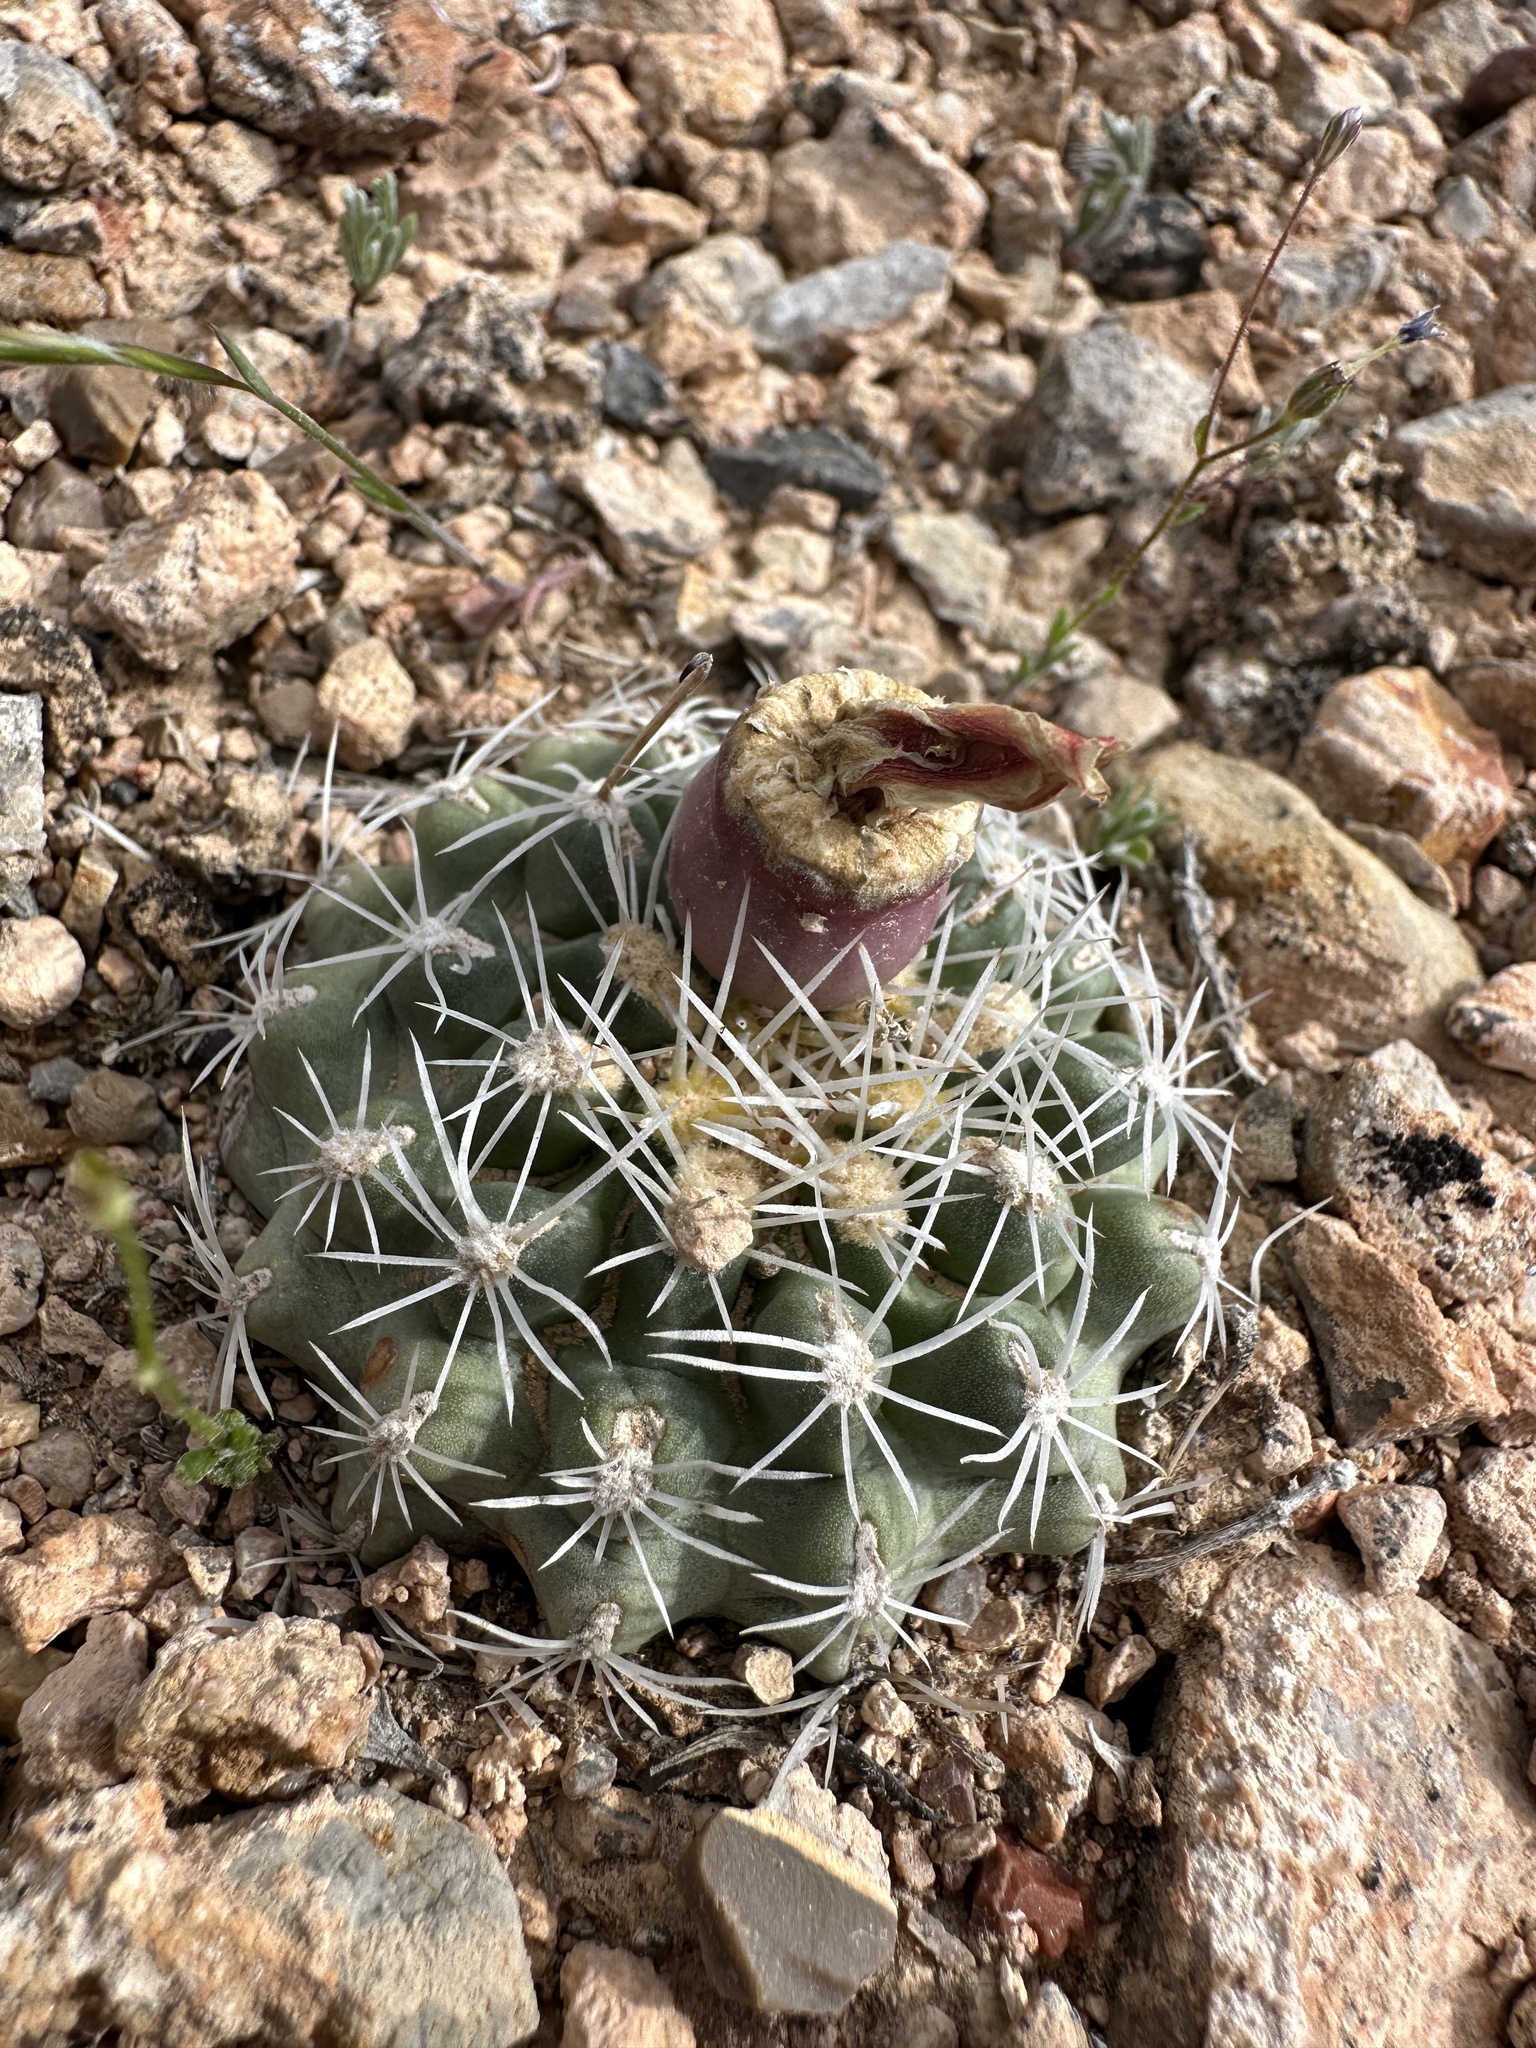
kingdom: Plantae
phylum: Tracheophyta
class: Magnoliopsida
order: Caryophyllales
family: Cactaceae
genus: Sclerocactus
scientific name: Sclerocactus pubispinus
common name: Great basin fishhook cactus
